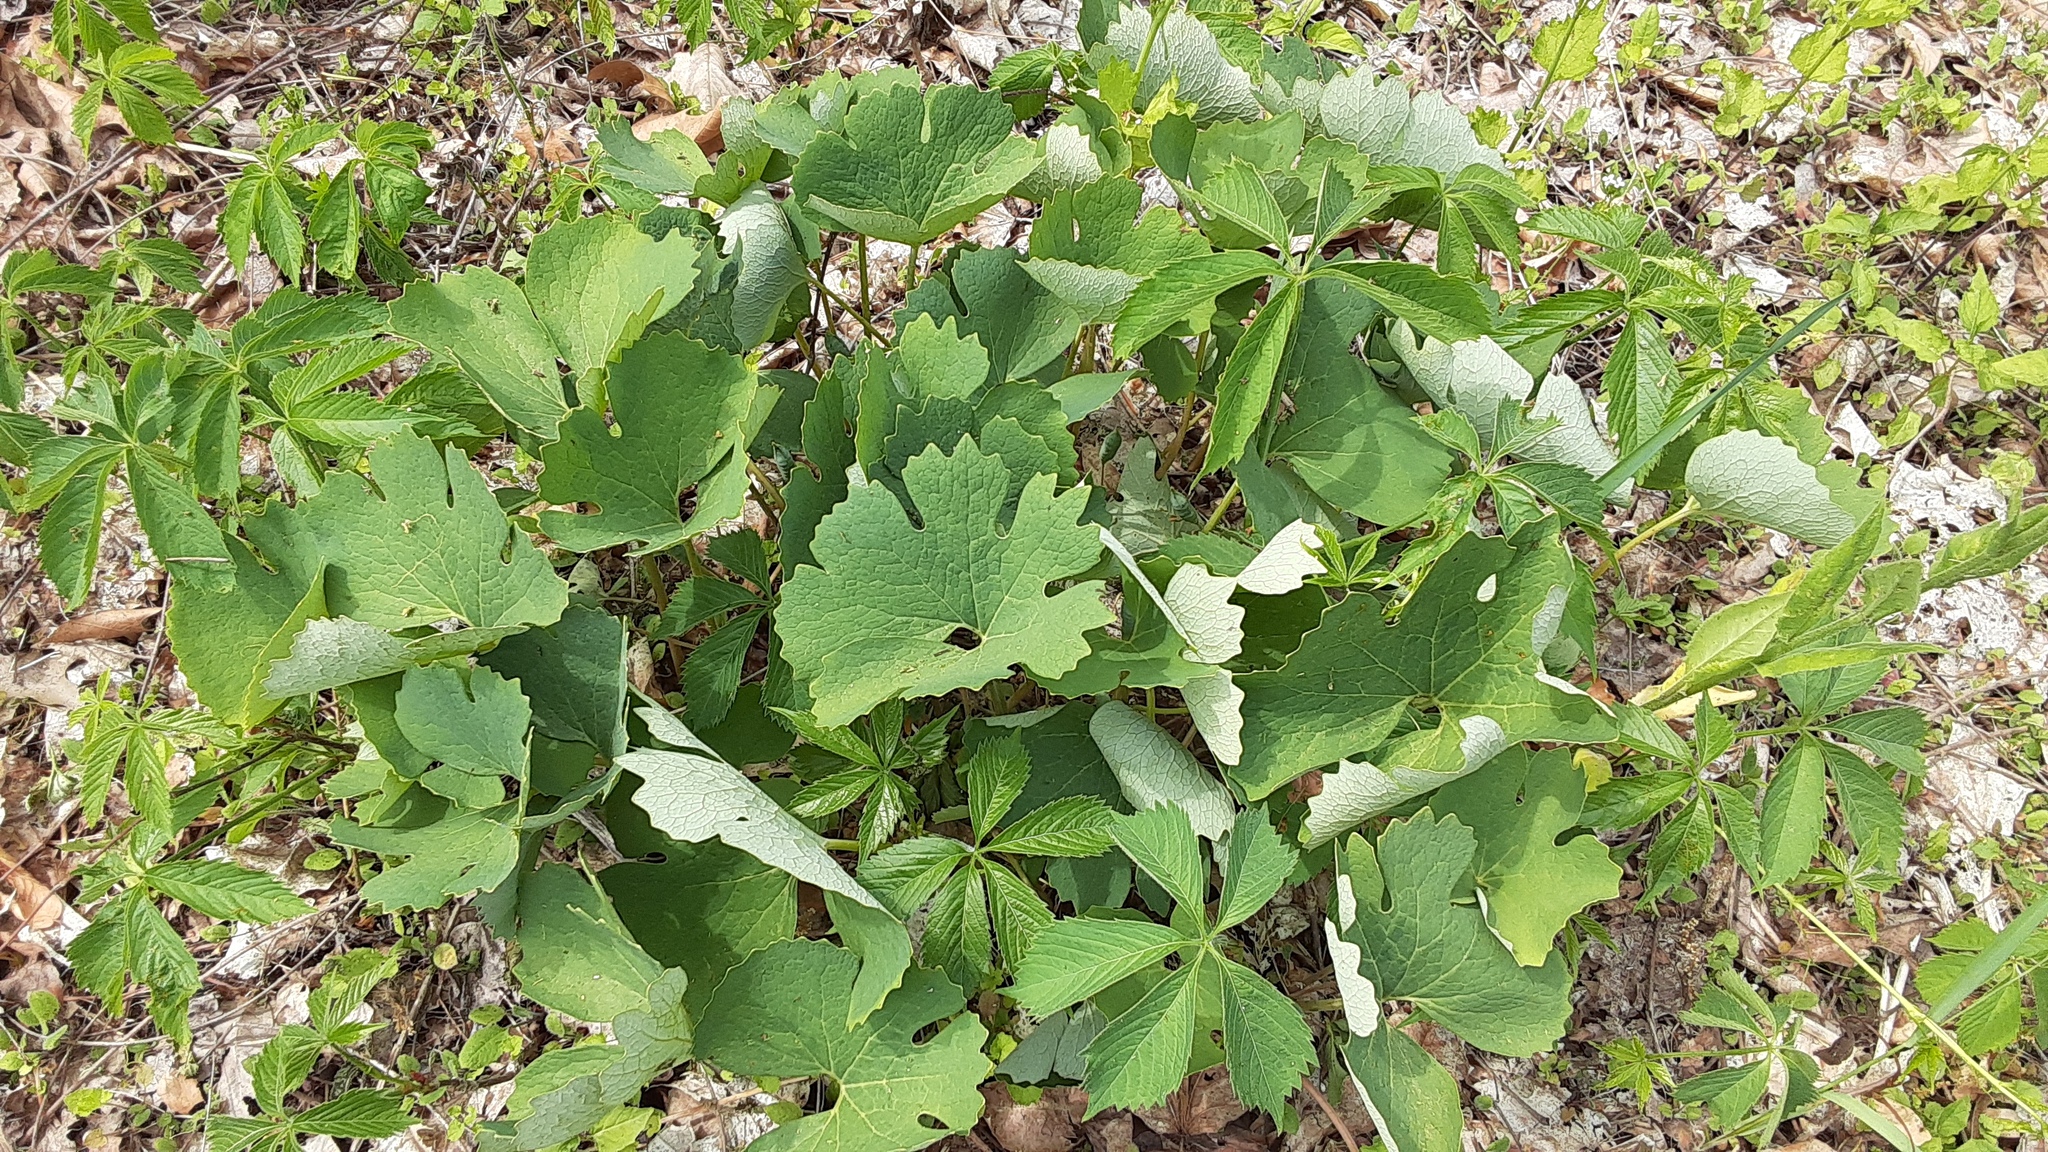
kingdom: Plantae
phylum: Tracheophyta
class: Magnoliopsida
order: Ranunculales
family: Papaveraceae
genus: Sanguinaria
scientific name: Sanguinaria canadensis
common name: Bloodroot
